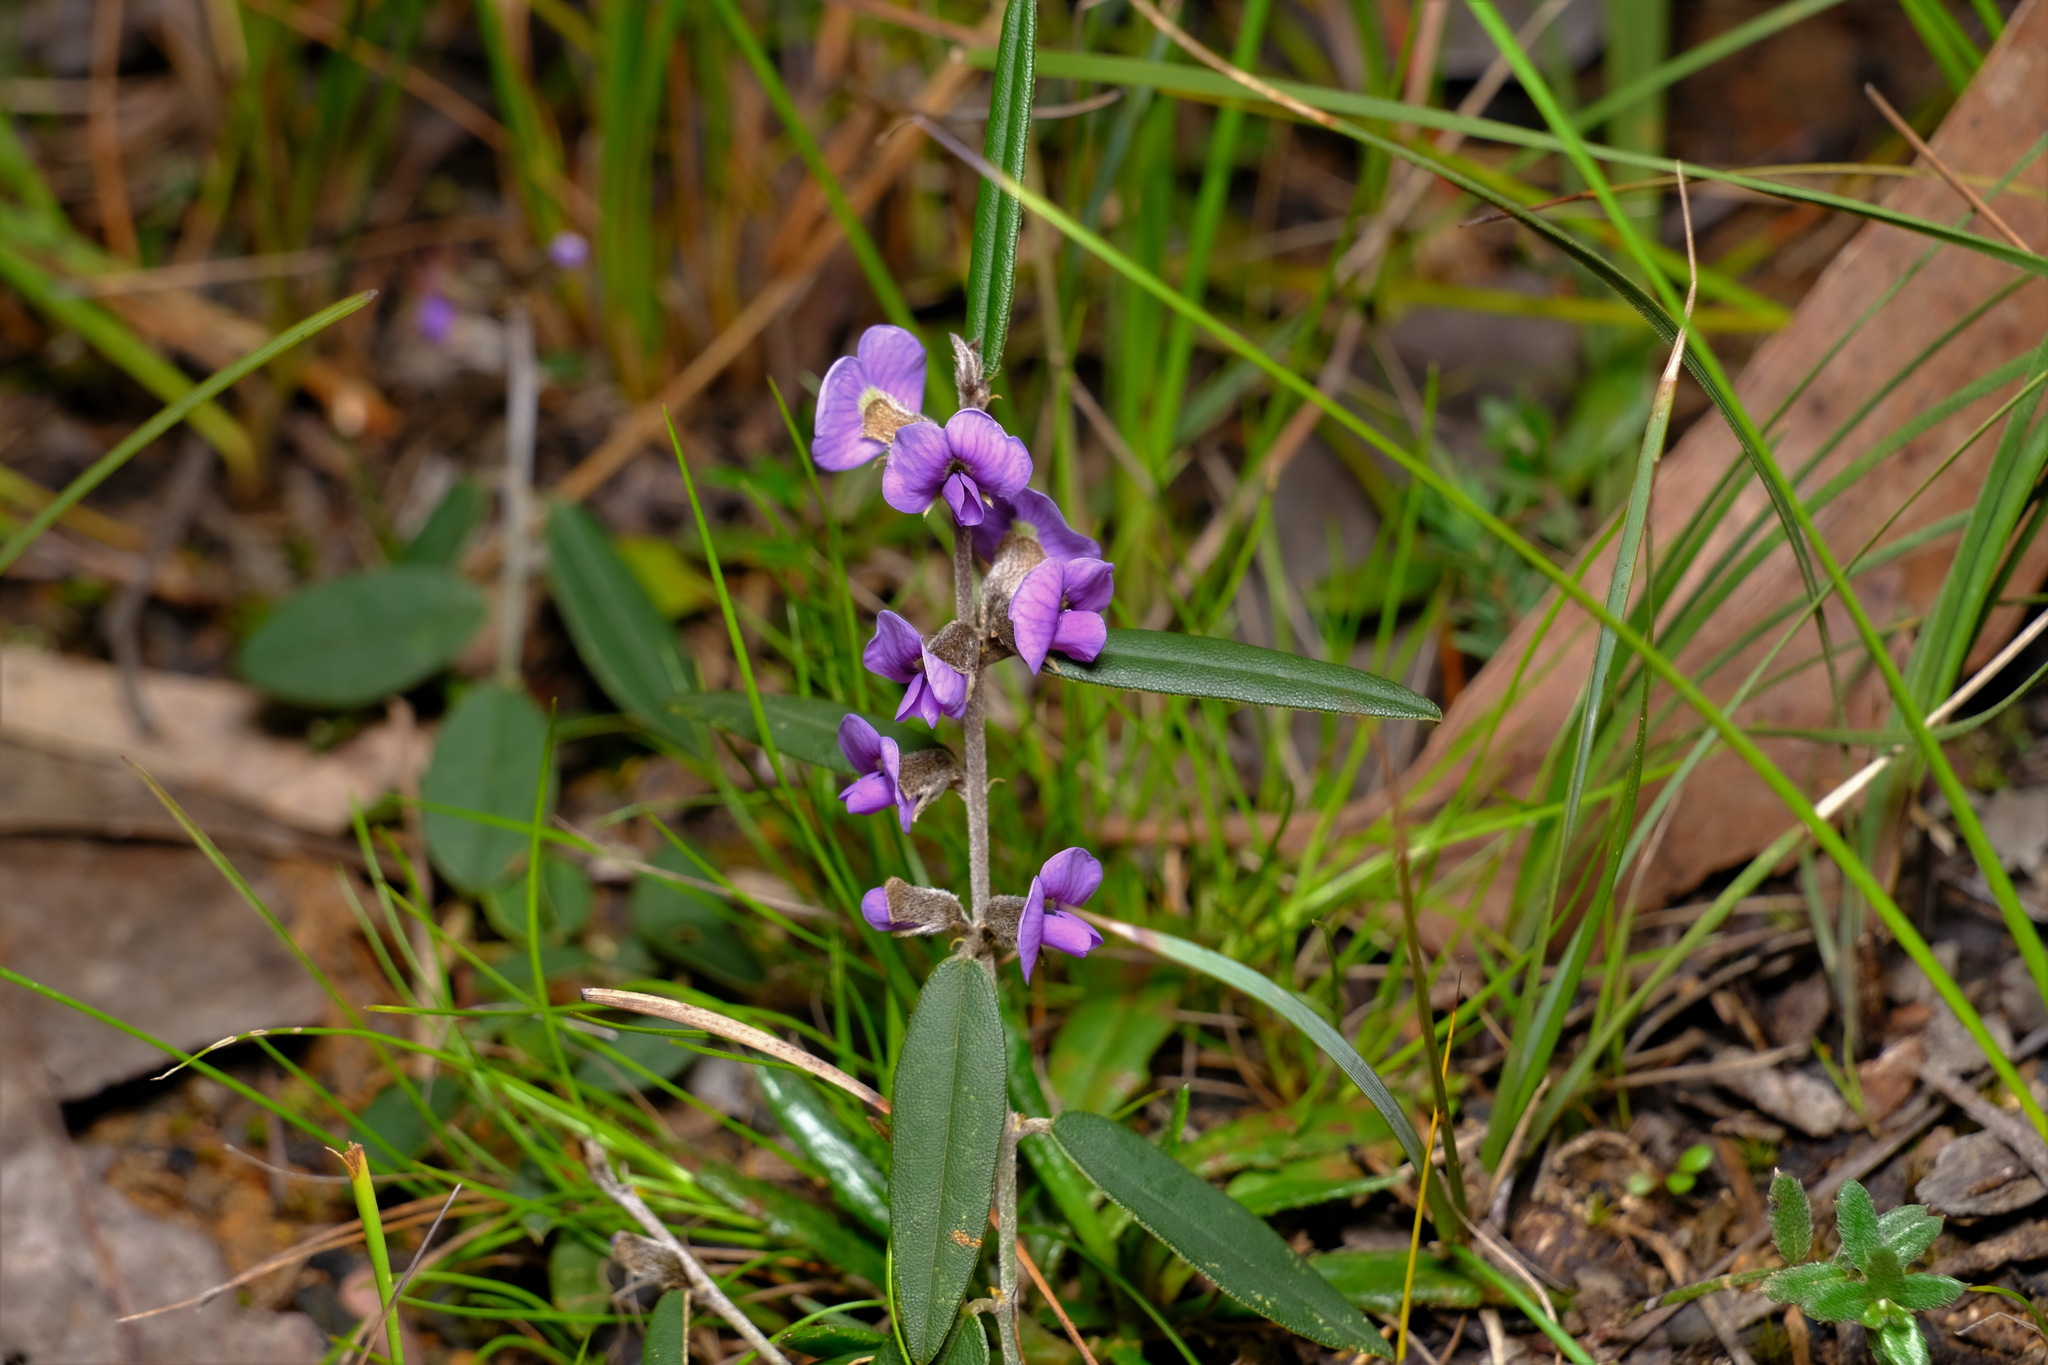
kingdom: Plantae
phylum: Tracheophyta
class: Magnoliopsida
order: Fabales
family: Fabaceae
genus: Hovea
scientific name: Hovea heterophylla
